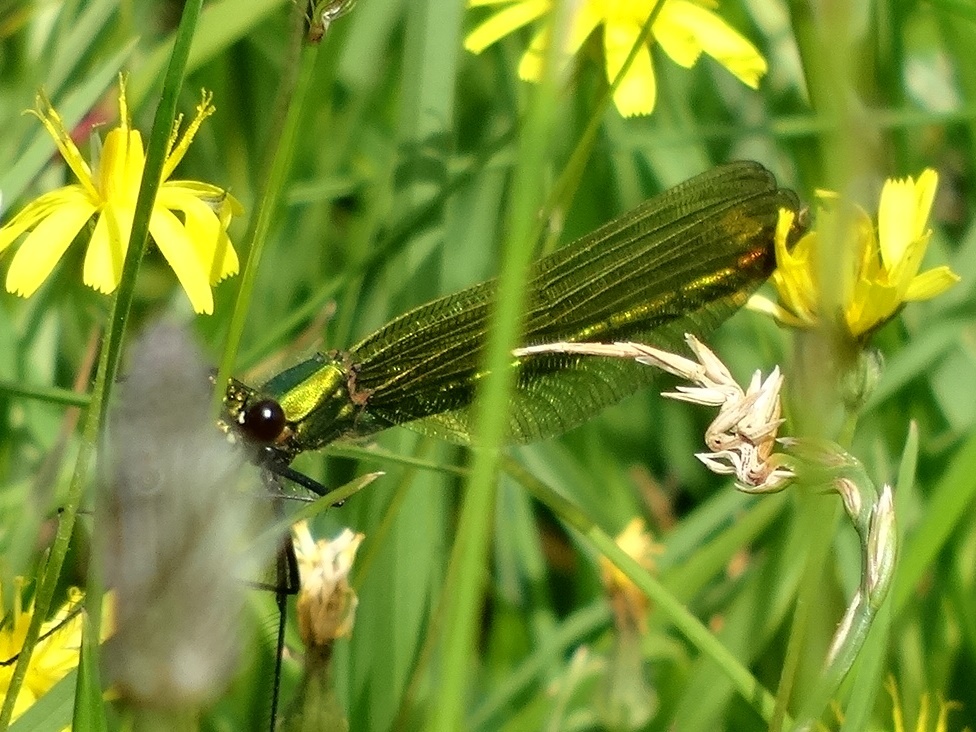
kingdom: Animalia
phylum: Arthropoda
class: Insecta
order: Odonata
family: Calopterygidae
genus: Calopteryx
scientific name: Calopteryx splendens
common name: Banded demoiselle
